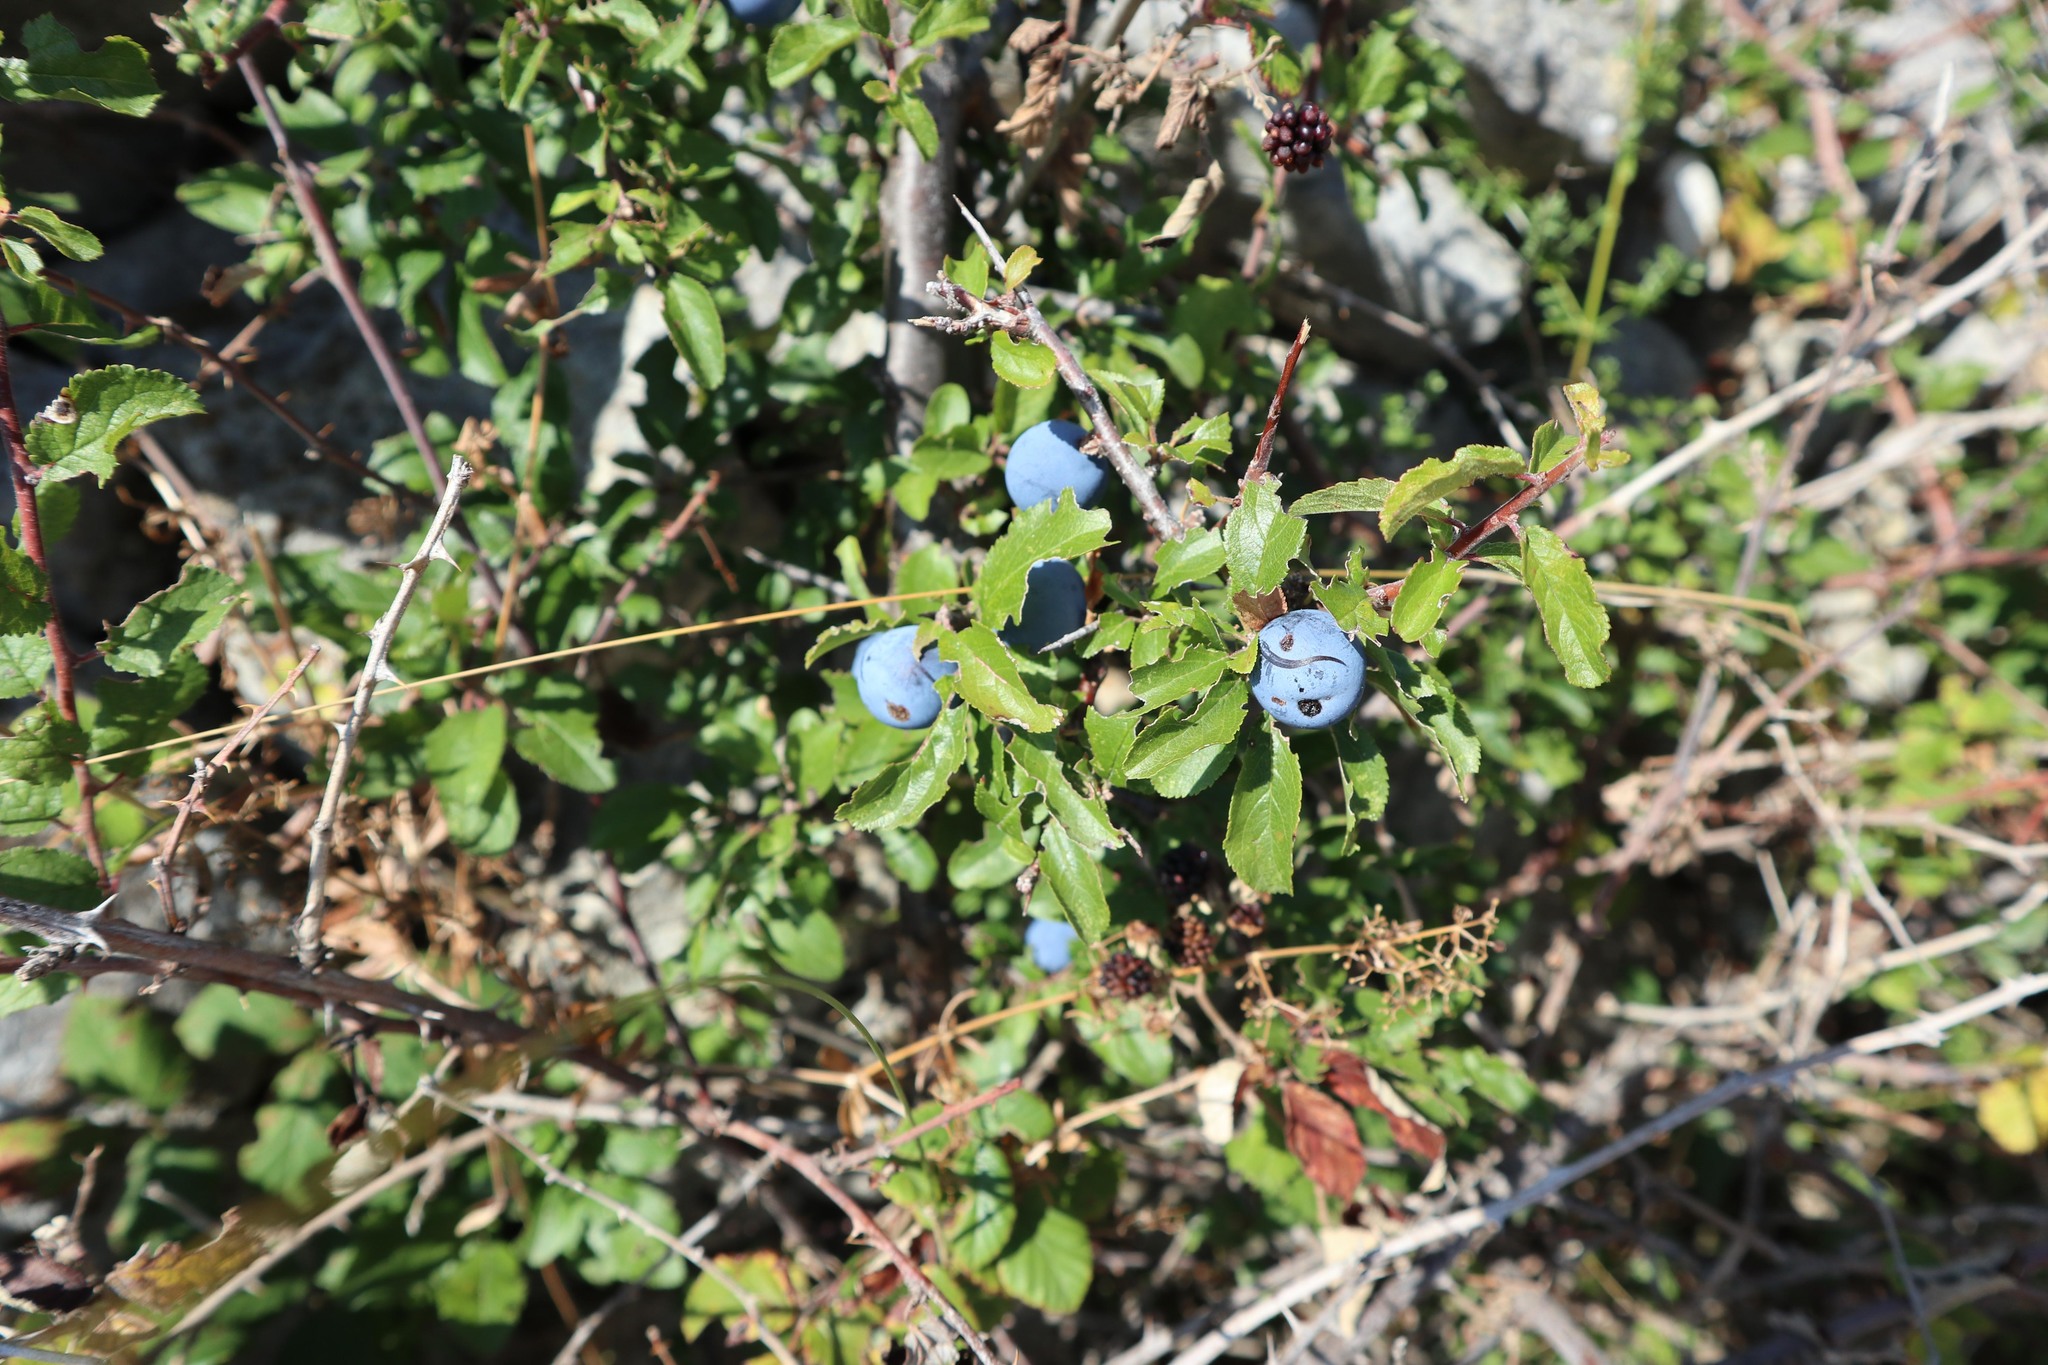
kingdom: Plantae
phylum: Tracheophyta
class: Magnoliopsida
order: Rosales
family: Rosaceae
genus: Prunus
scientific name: Prunus spinosa
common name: Blackthorn
